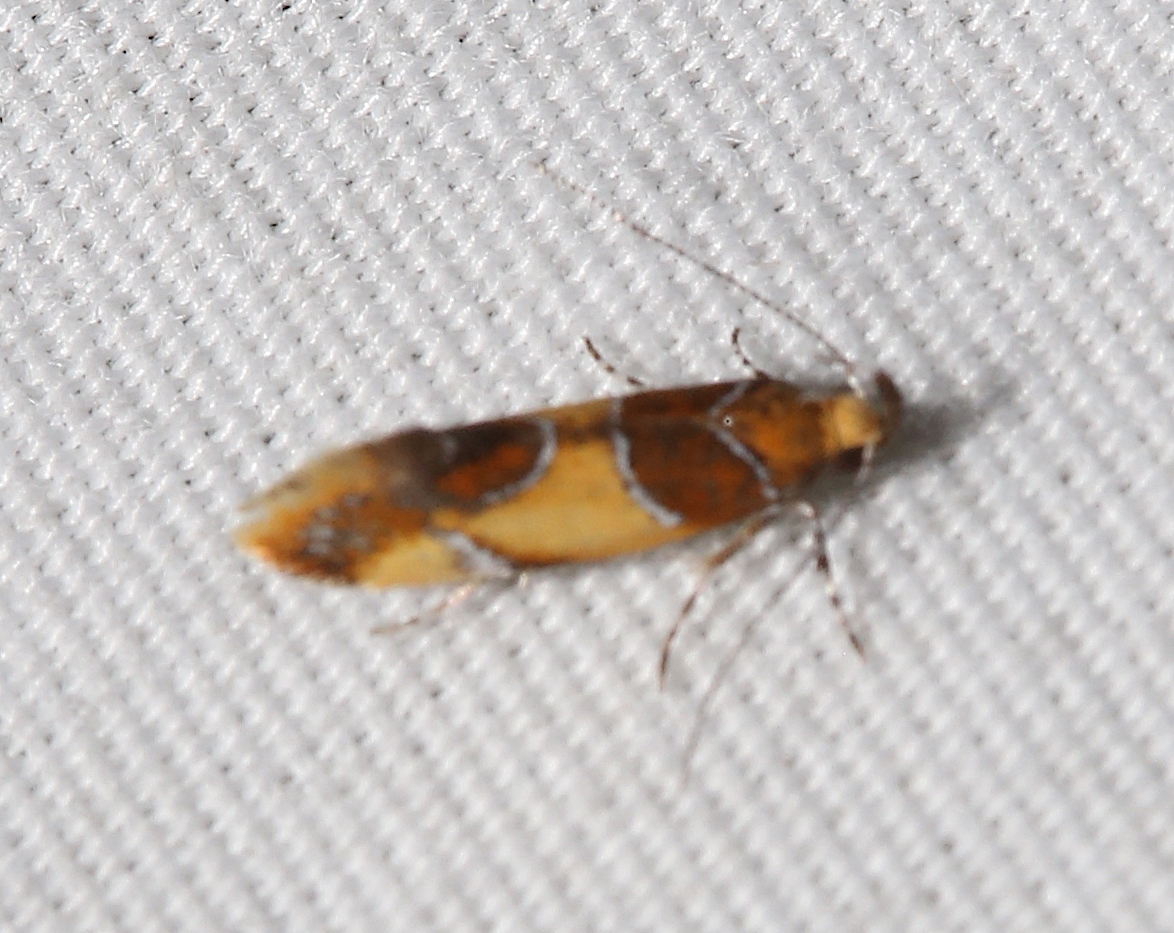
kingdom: Animalia
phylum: Arthropoda
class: Insecta
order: Lepidoptera
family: Oecophoridae
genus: Callima
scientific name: Callima argenticinctella
